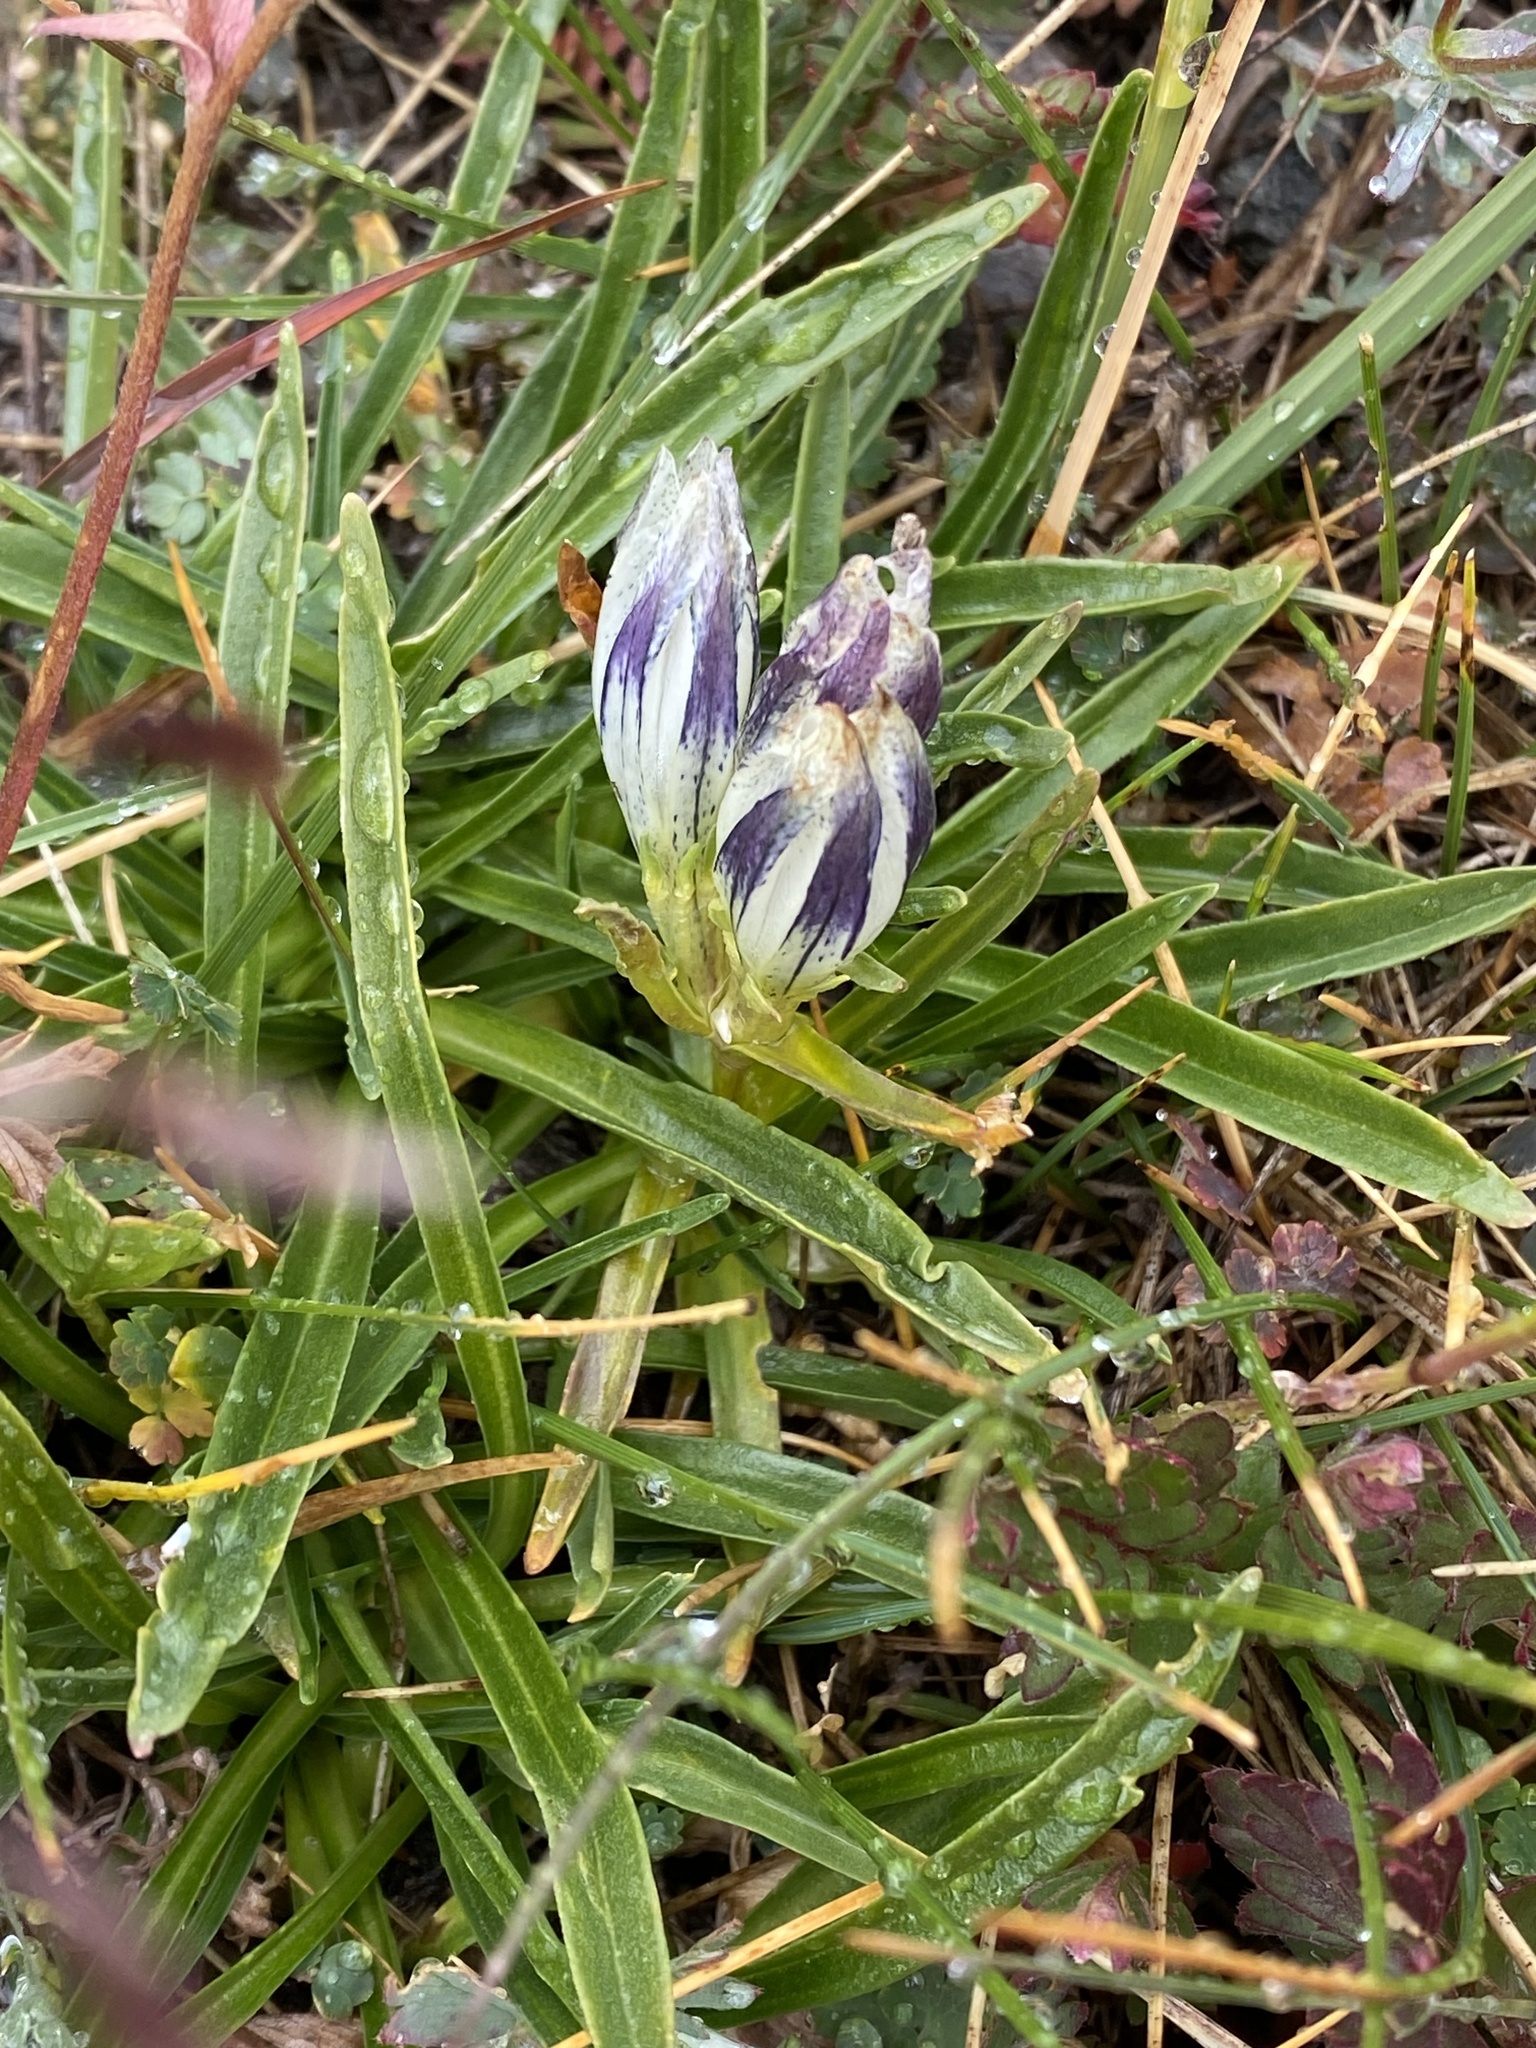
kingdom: Plantae
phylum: Tracheophyta
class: Magnoliopsida
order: Gentianales
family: Gentianaceae
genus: Gentiana
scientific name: Gentiana algida
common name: Arctic gentian
